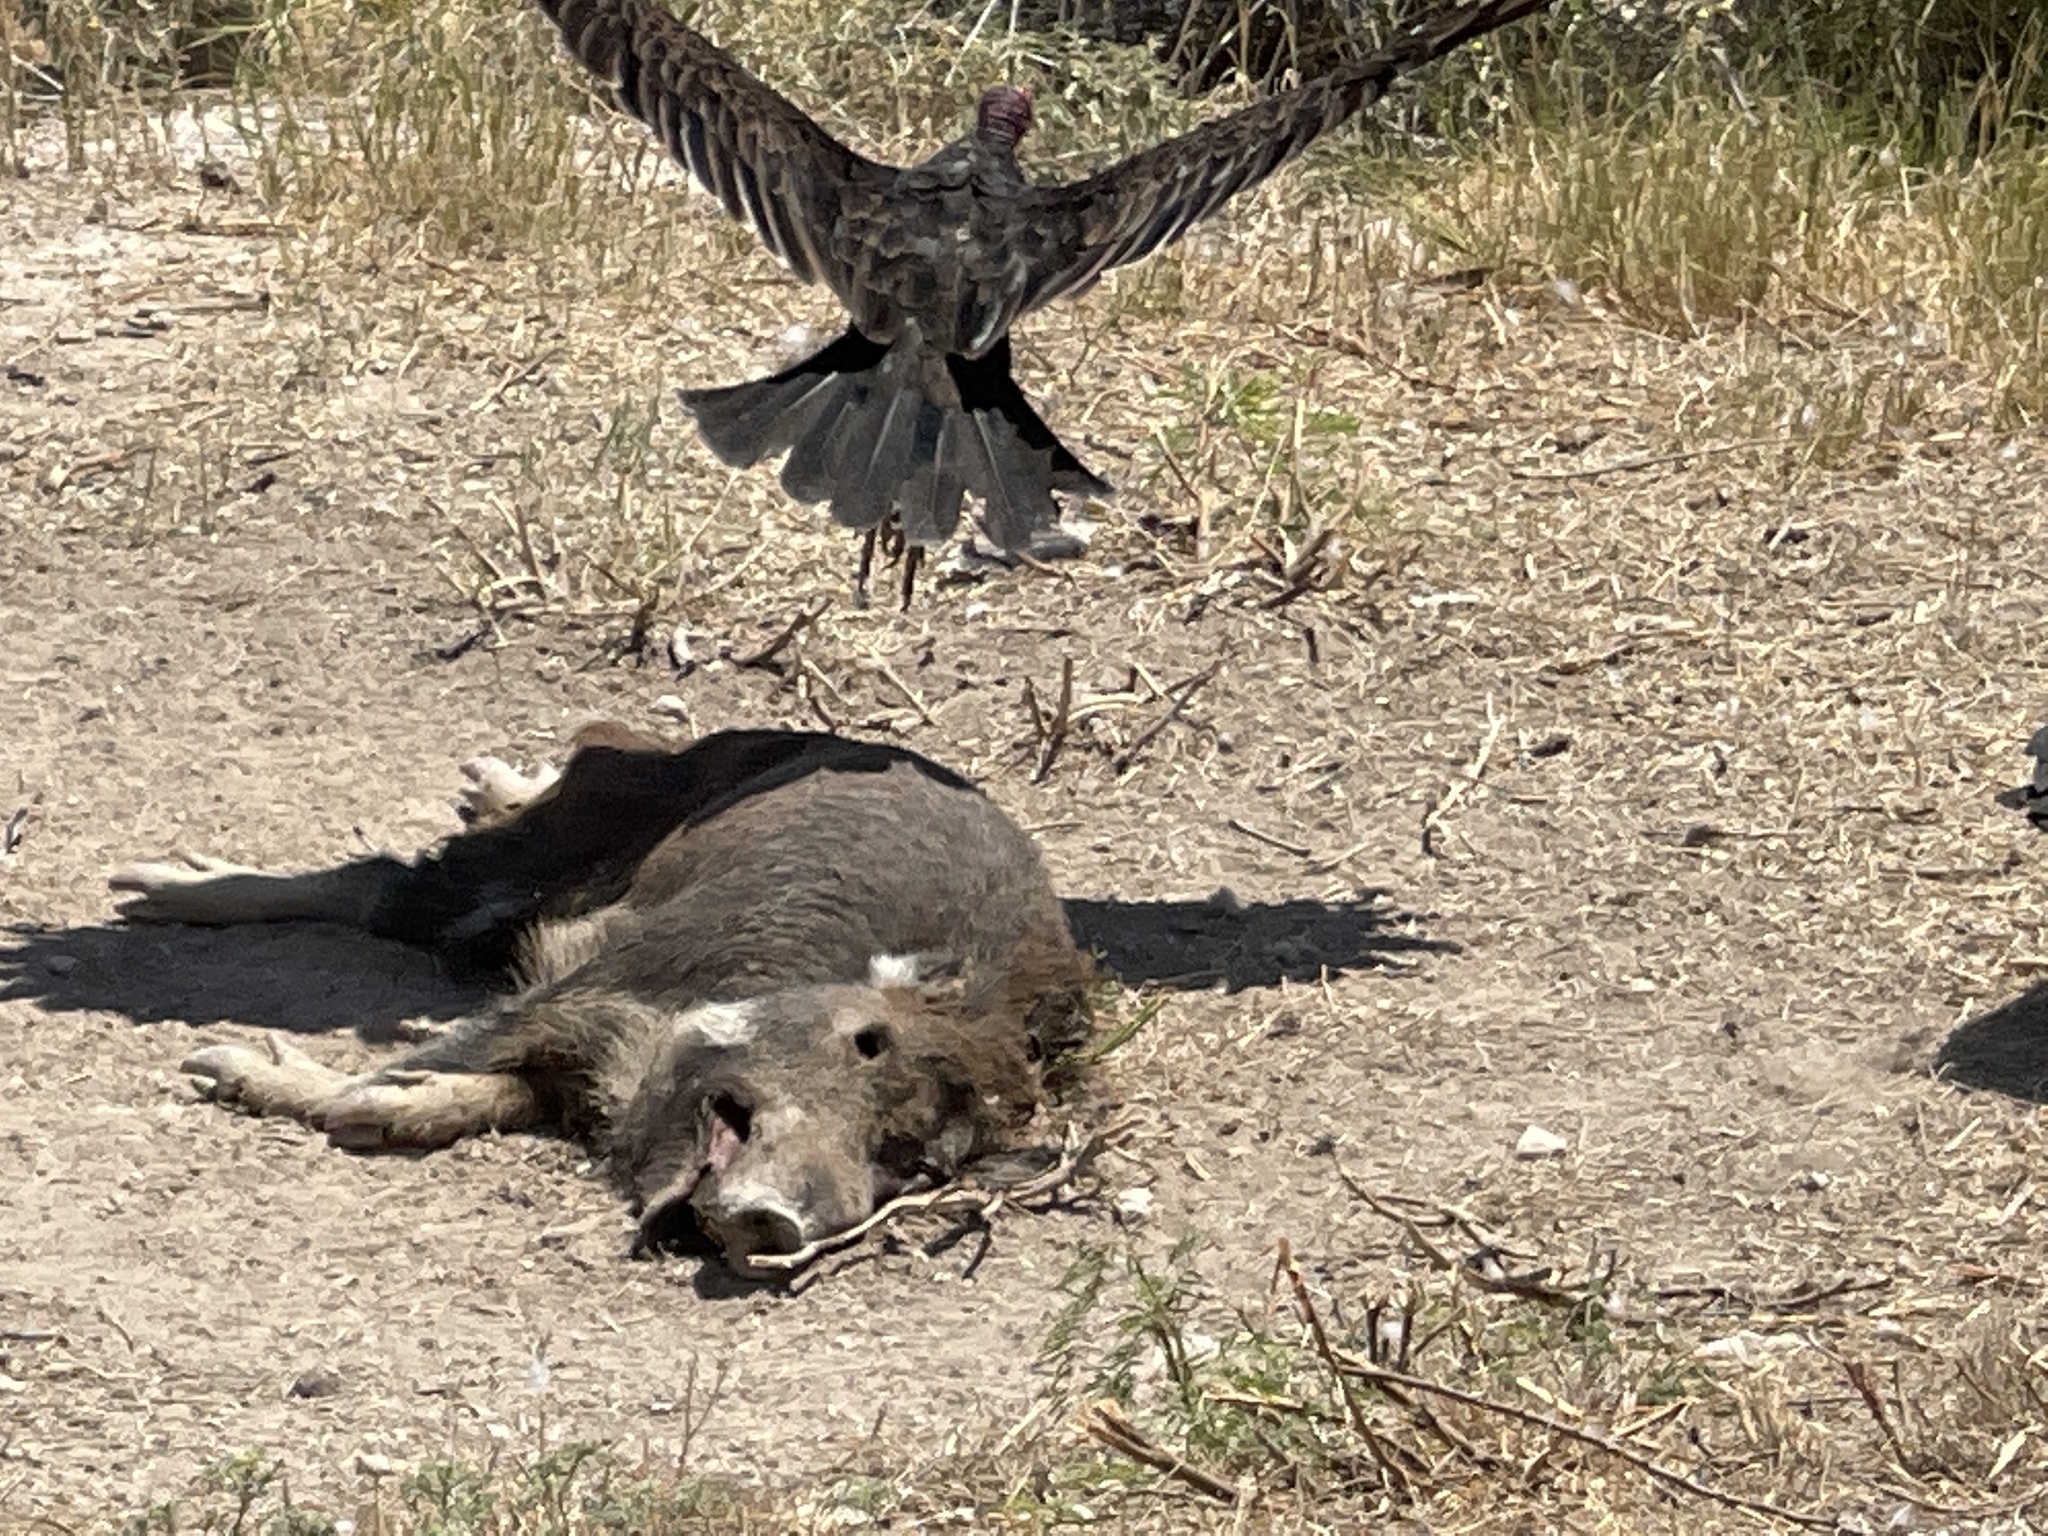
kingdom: Animalia
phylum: Chordata
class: Mammalia
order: Artiodactyla
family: Suidae
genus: Sus
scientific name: Sus scrofa
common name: Wild boar
